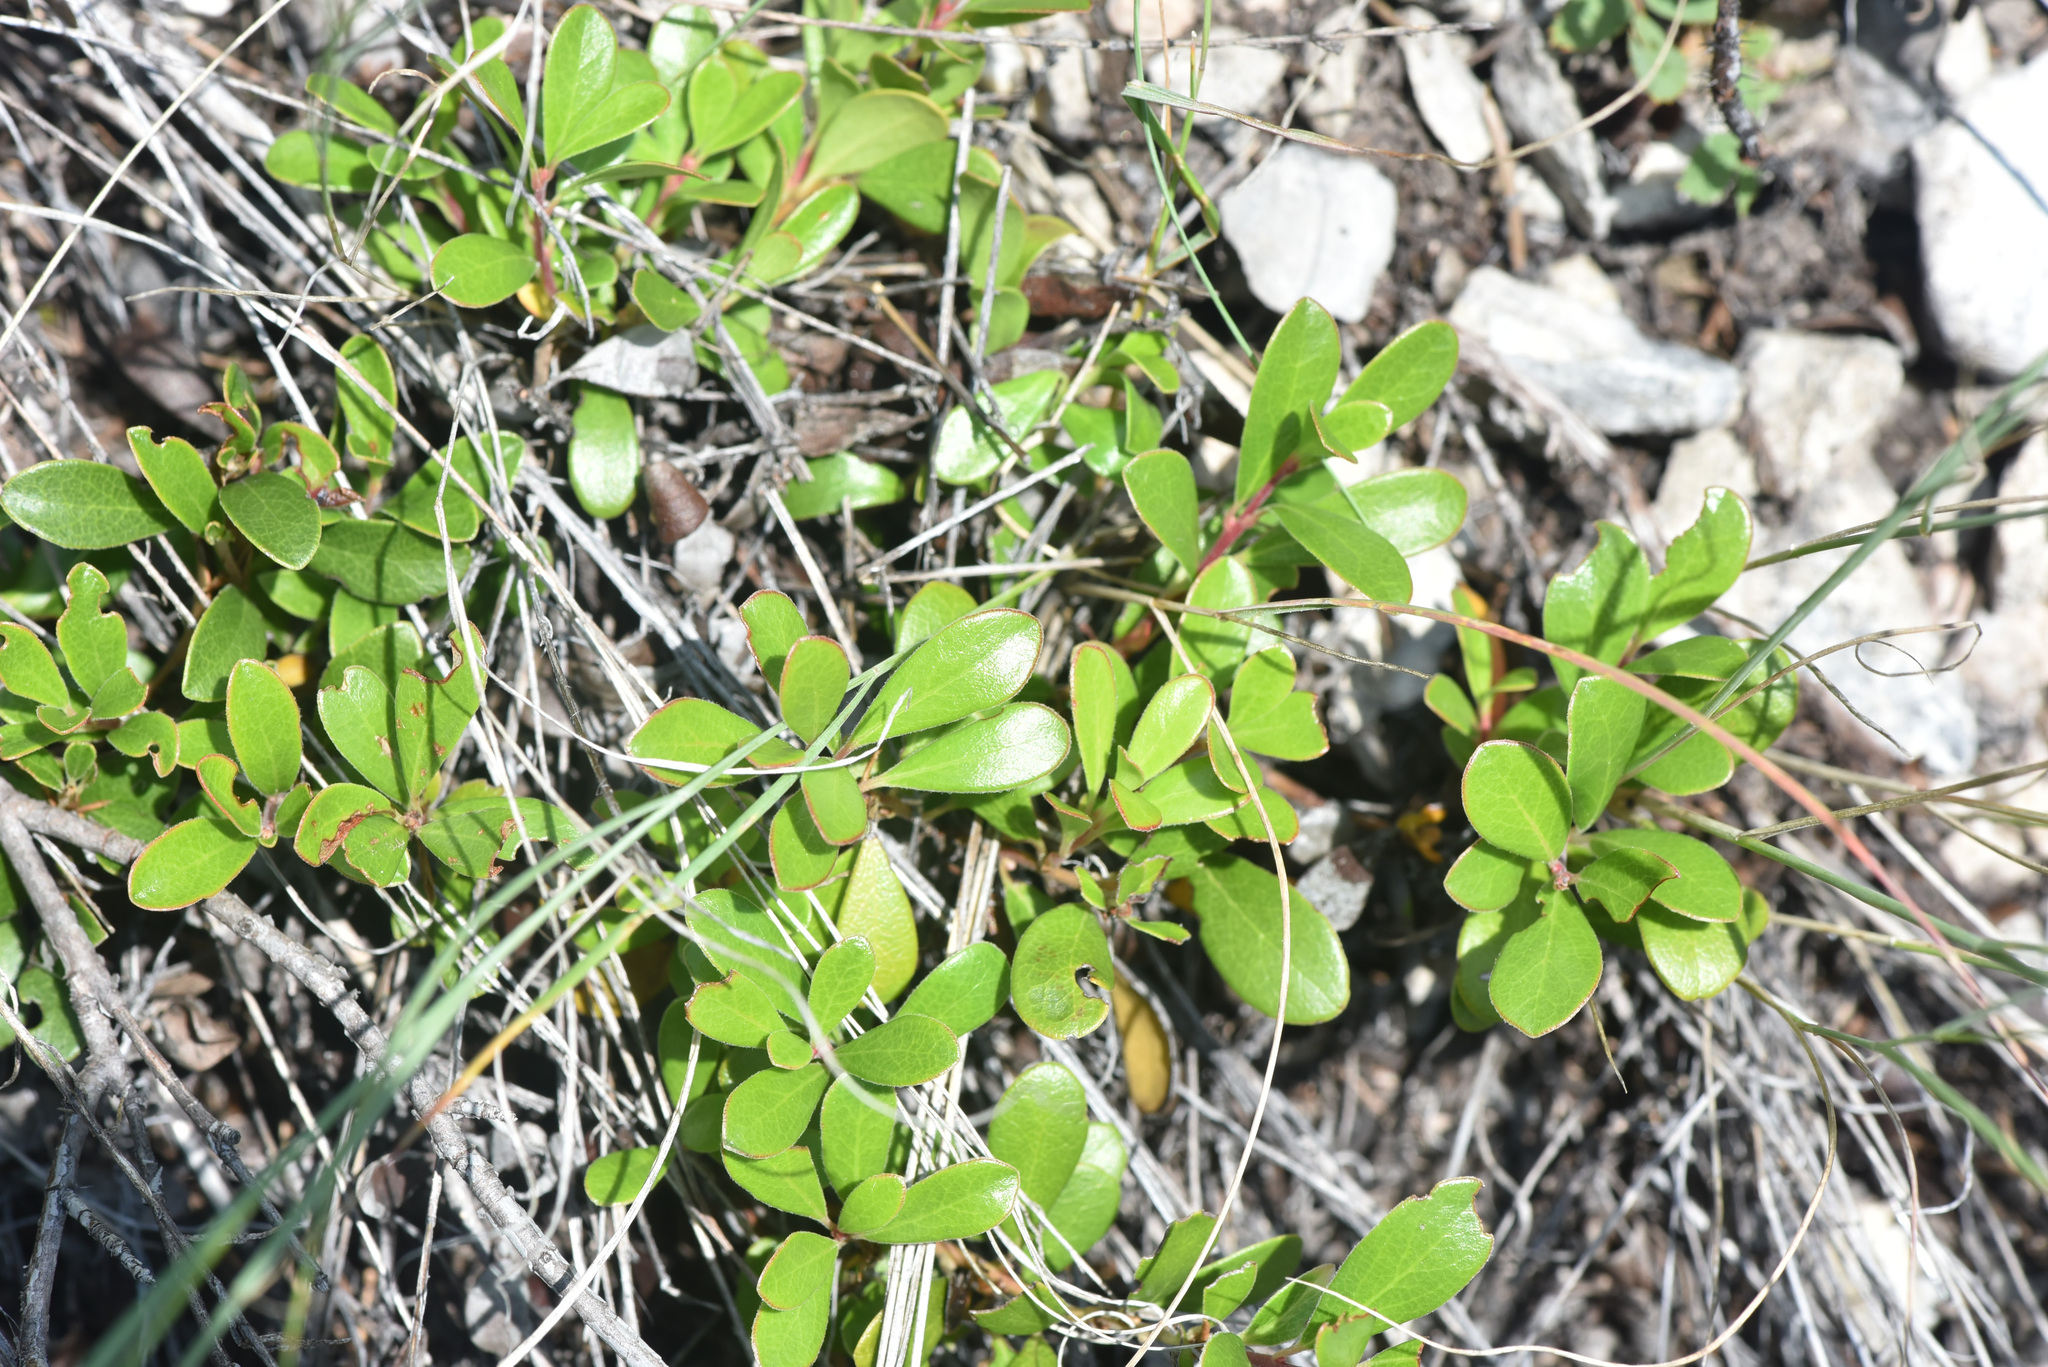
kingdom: Plantae
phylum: Tracheophyta
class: Magnoliopsida
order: Ericales
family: Ericaceae
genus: Arctostaphylos
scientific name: Arctostaphylos uva-ursi
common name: Bearberry
